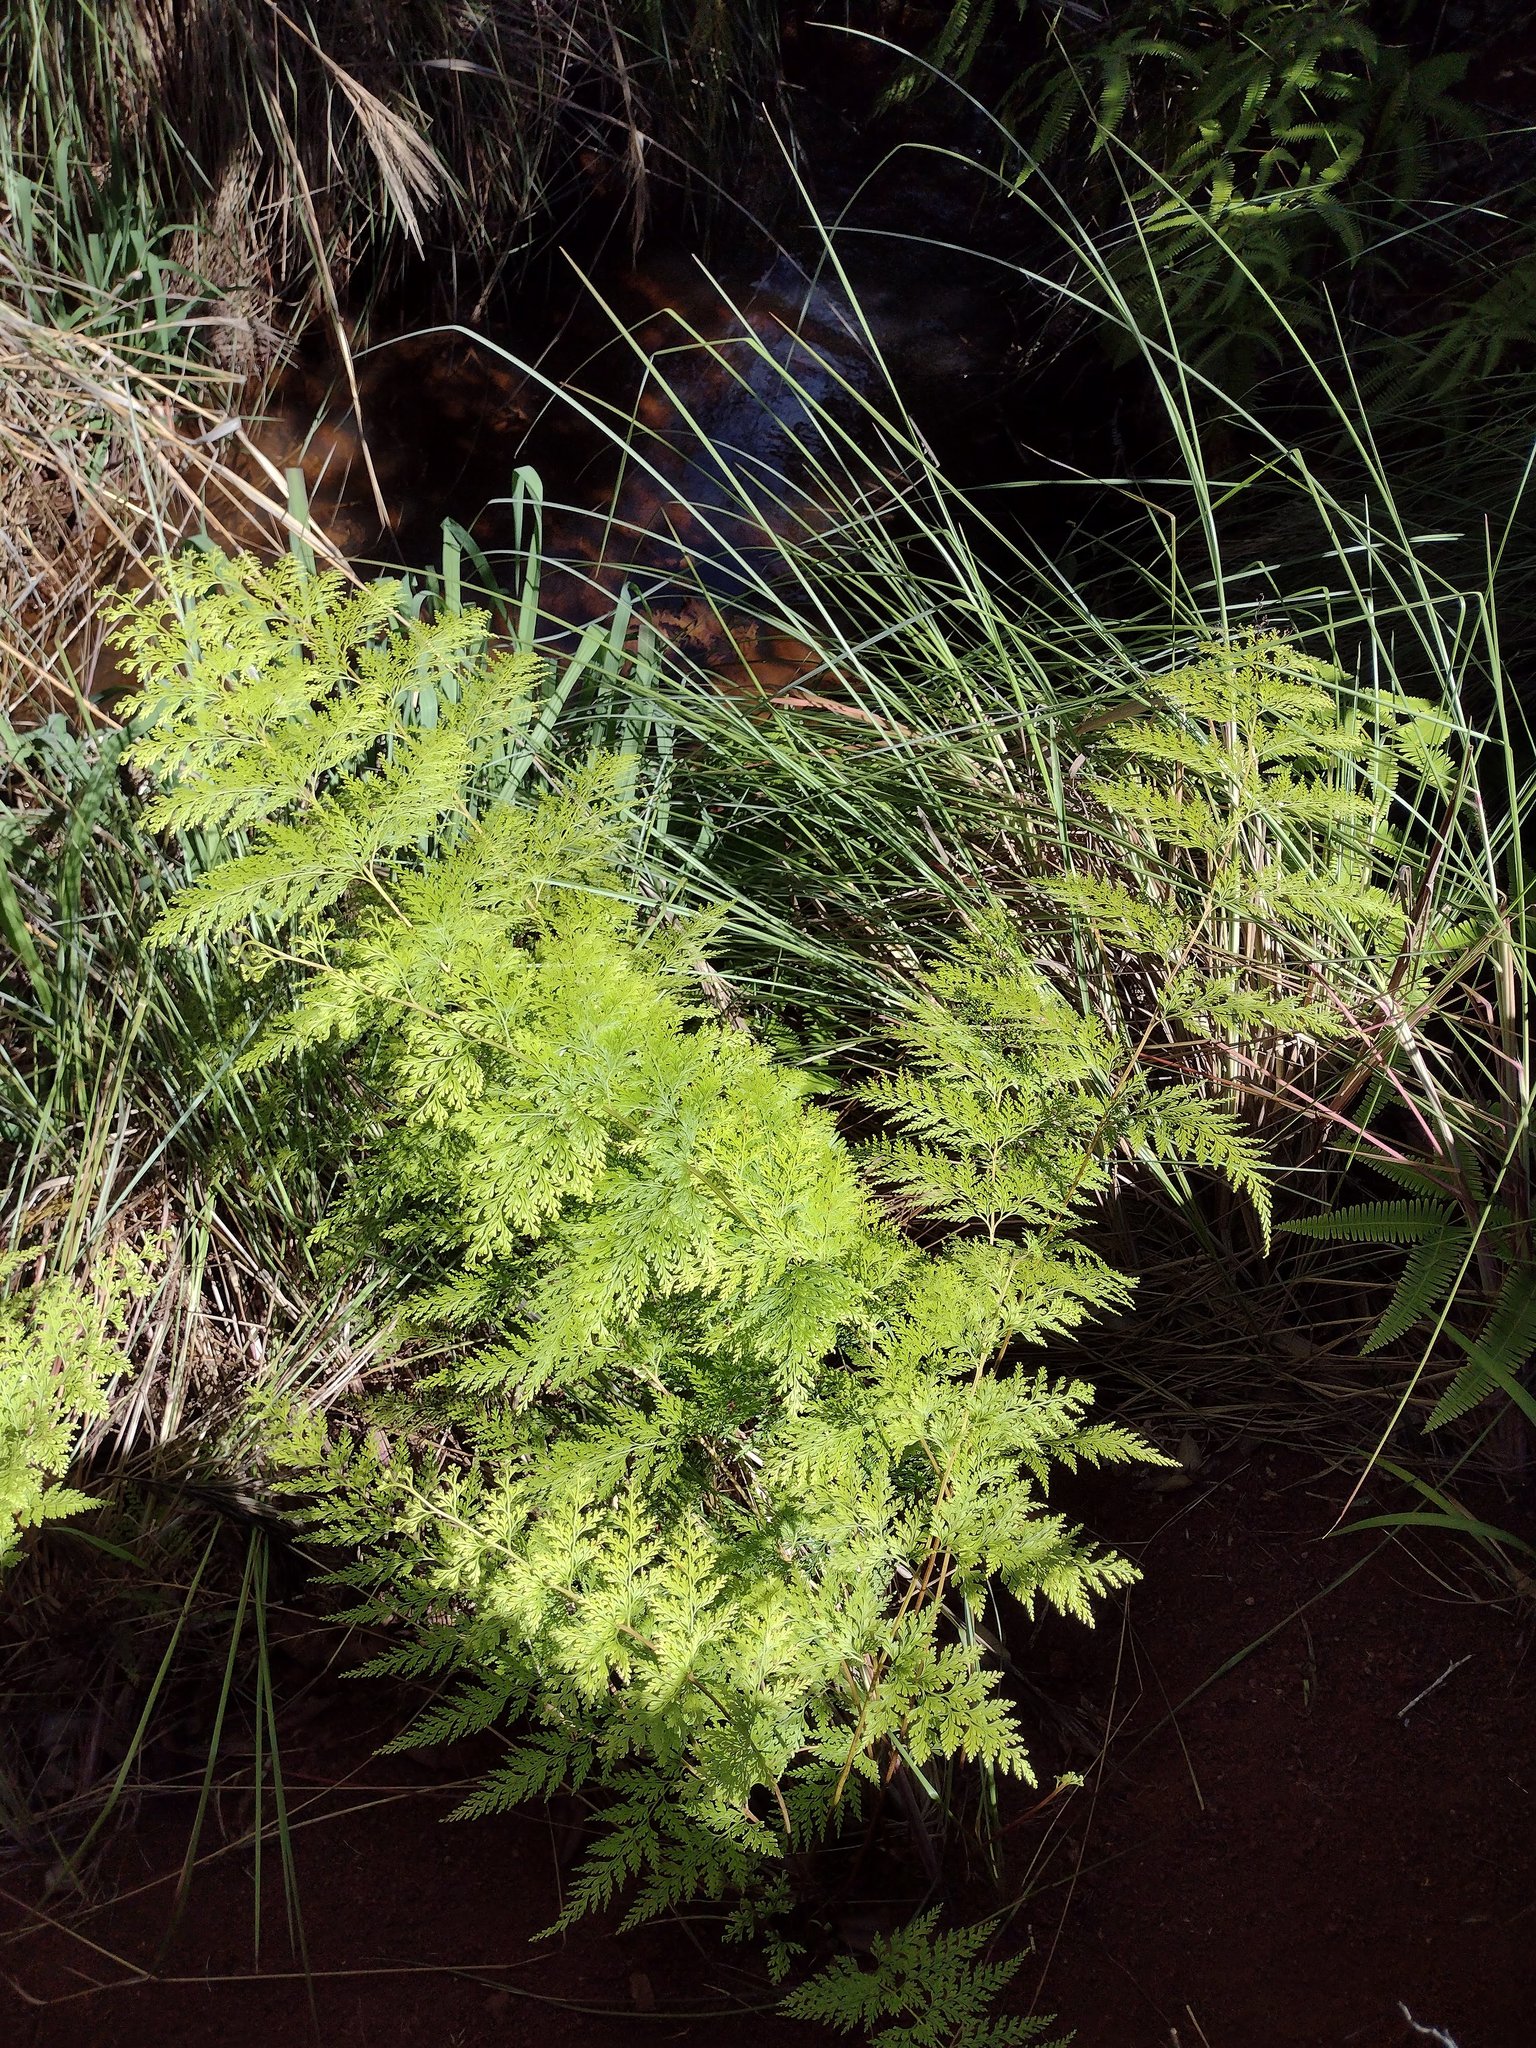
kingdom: Plantae
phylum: Tracheophyta
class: Polypodiopsida
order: Polypodiales
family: Lindsaeaceae
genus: Odontosoria
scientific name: Odontosoria chinensis
